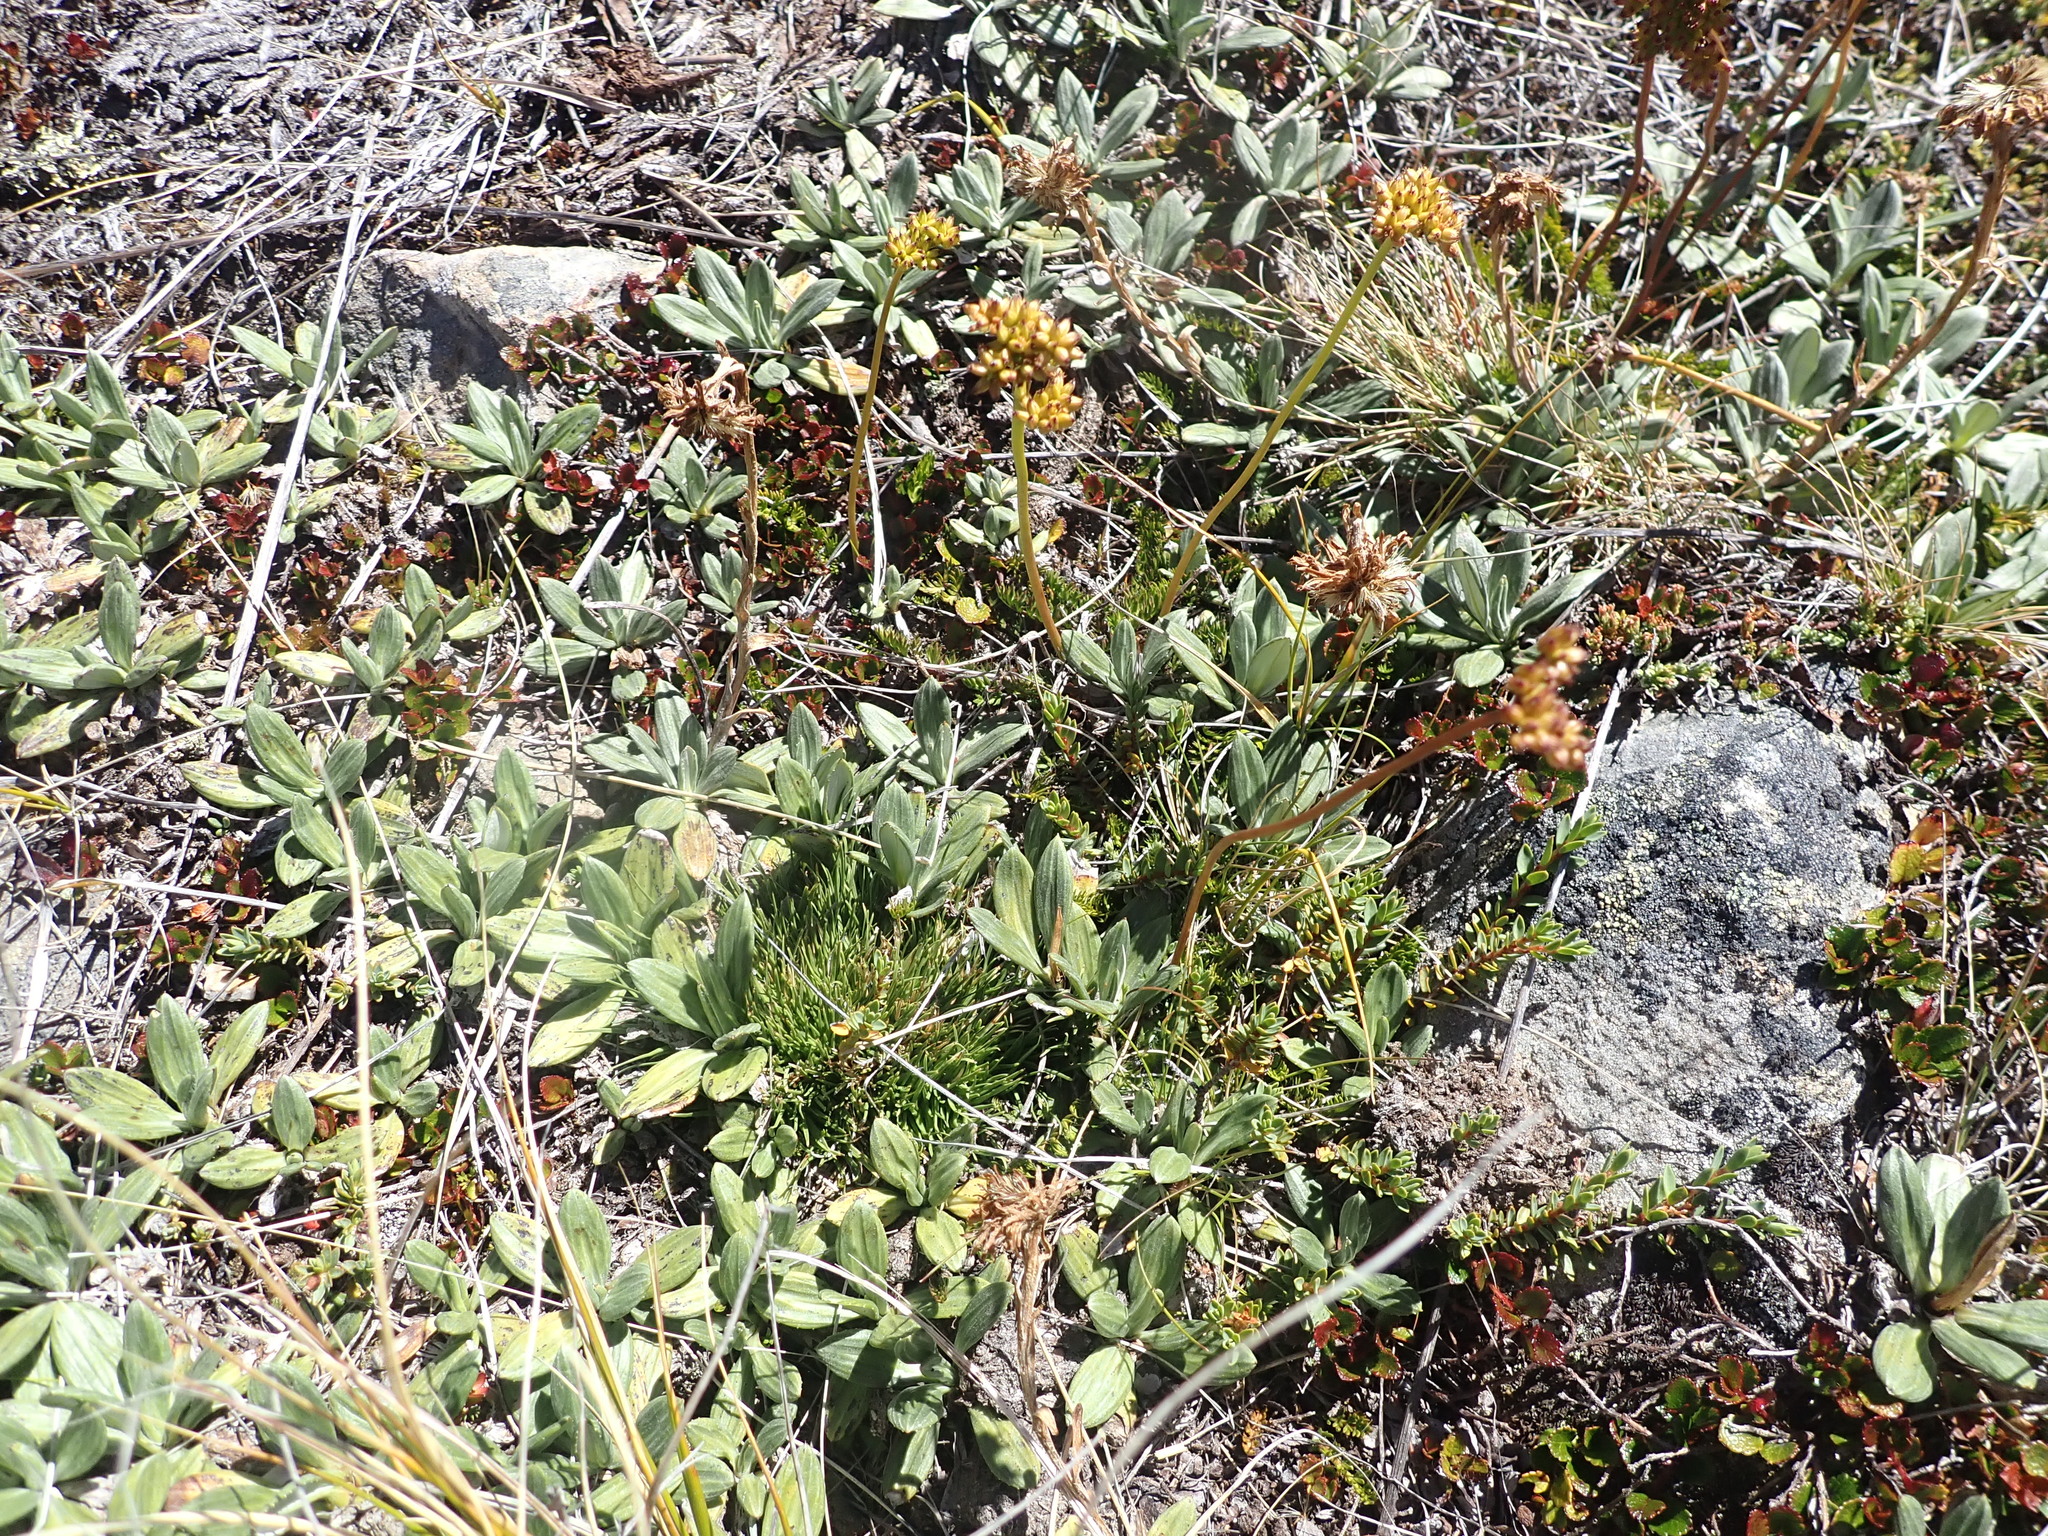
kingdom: Plantae
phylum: Tracheophyta
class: Magnoliopsida
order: Asterales
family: Asteraceae
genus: Celmisia
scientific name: Celmisia haastii
